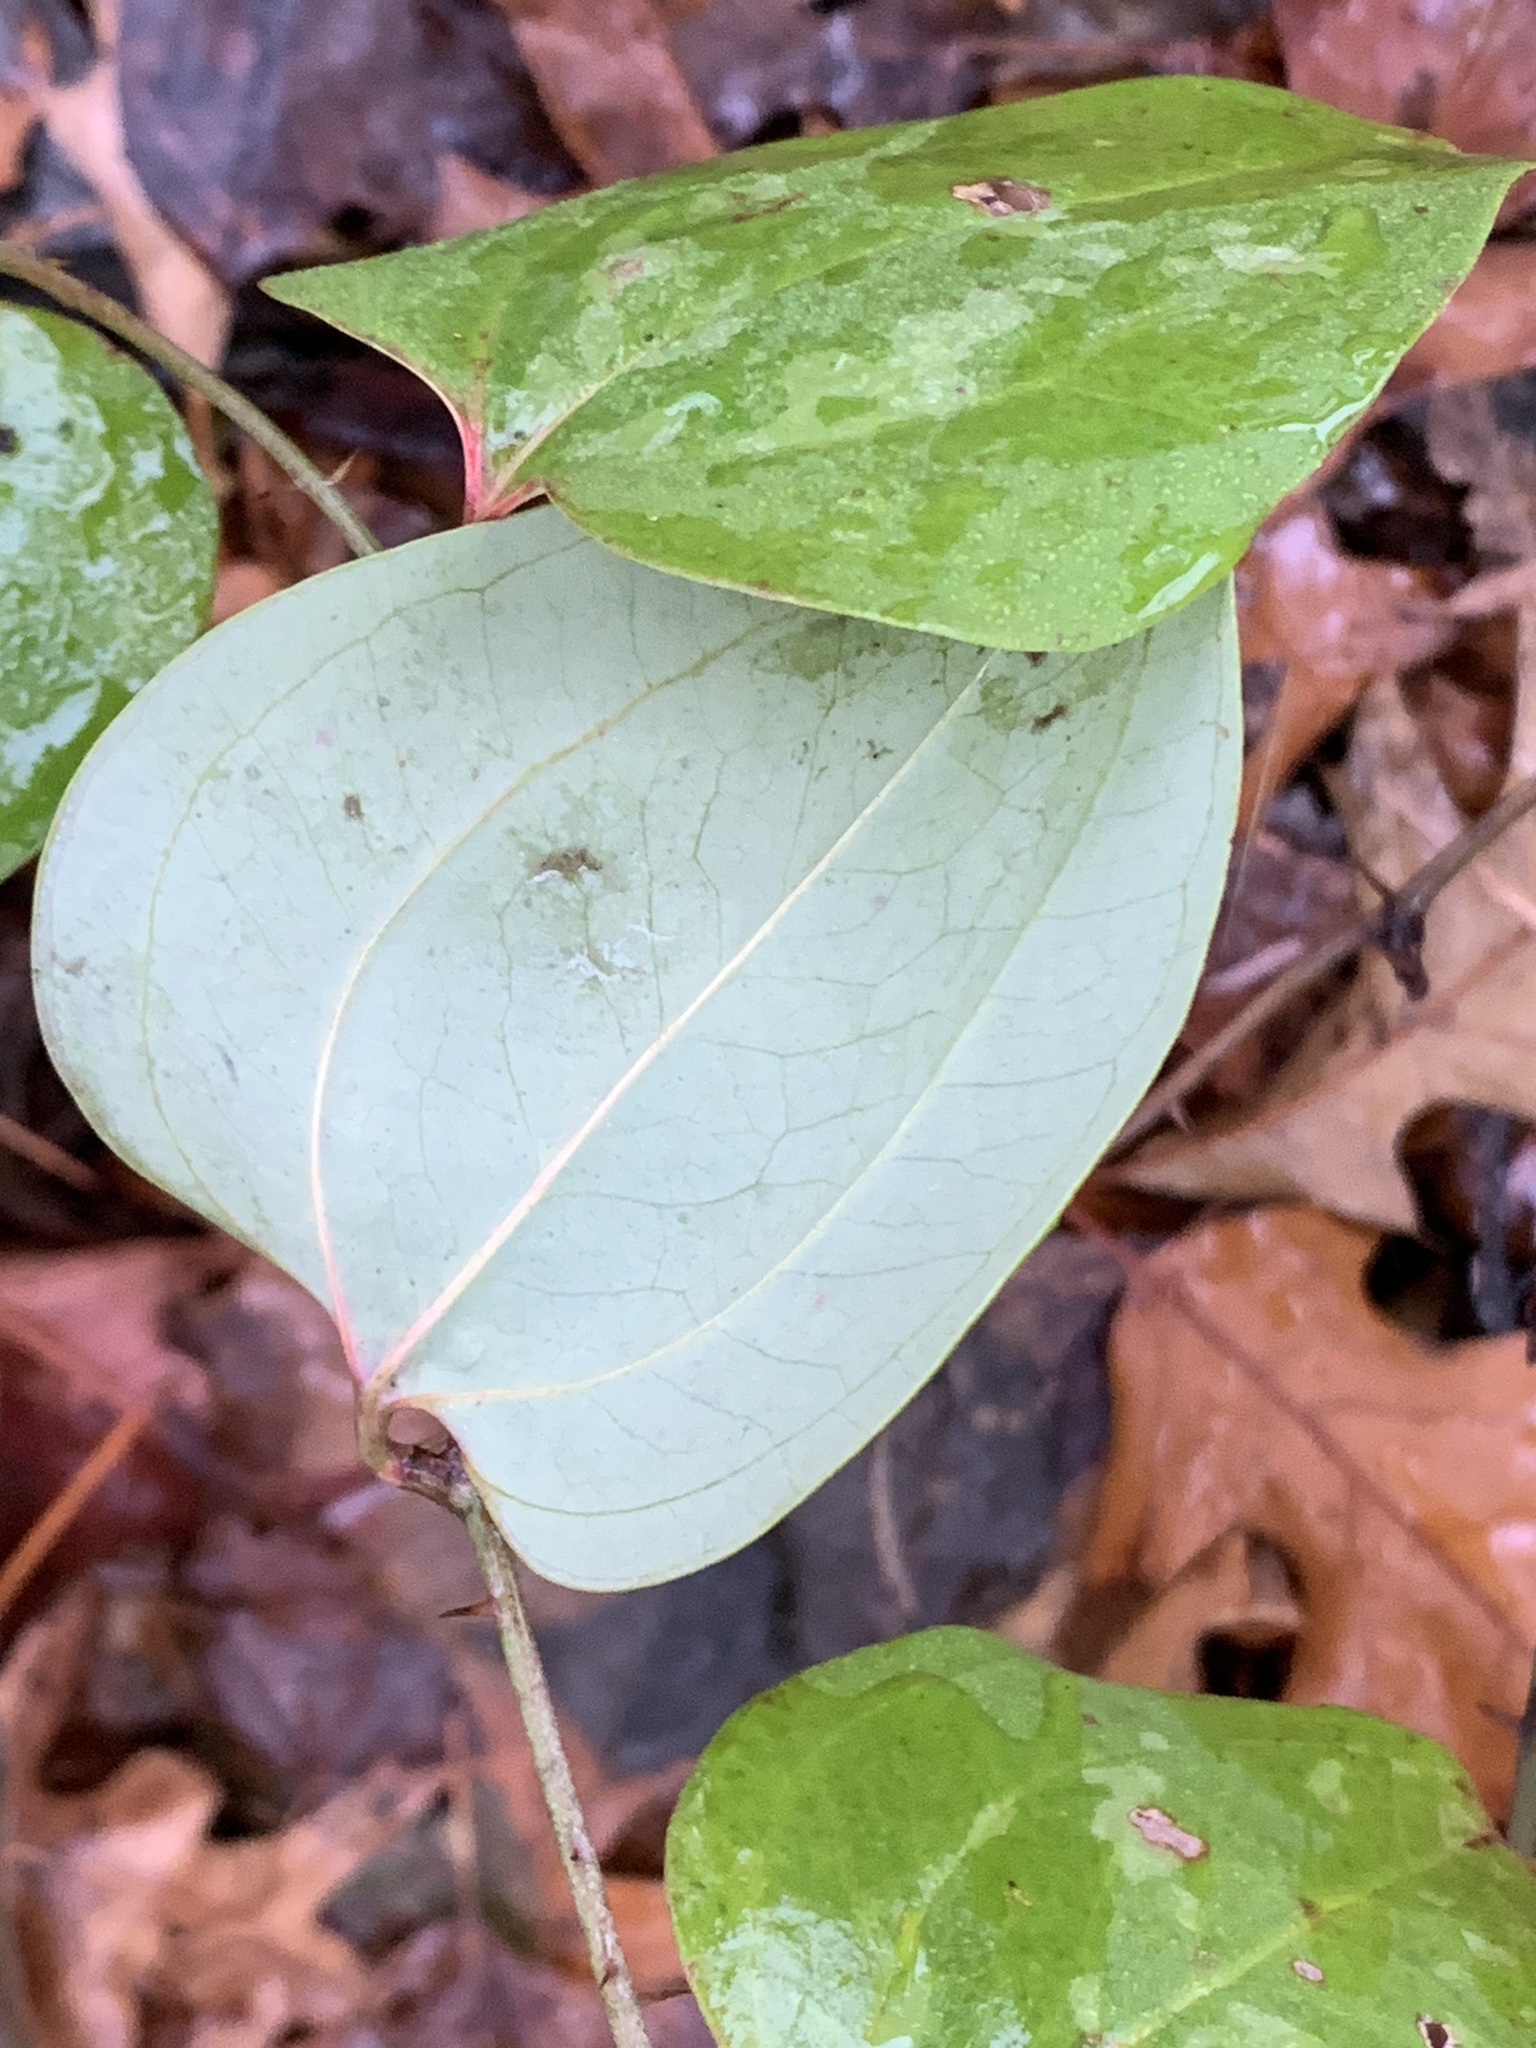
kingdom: Plantae
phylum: Tracheophyta
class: Liliopsida
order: Liliales
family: Smilacaceae
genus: Smilax
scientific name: Smilax glauca
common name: Cat greenbrier
